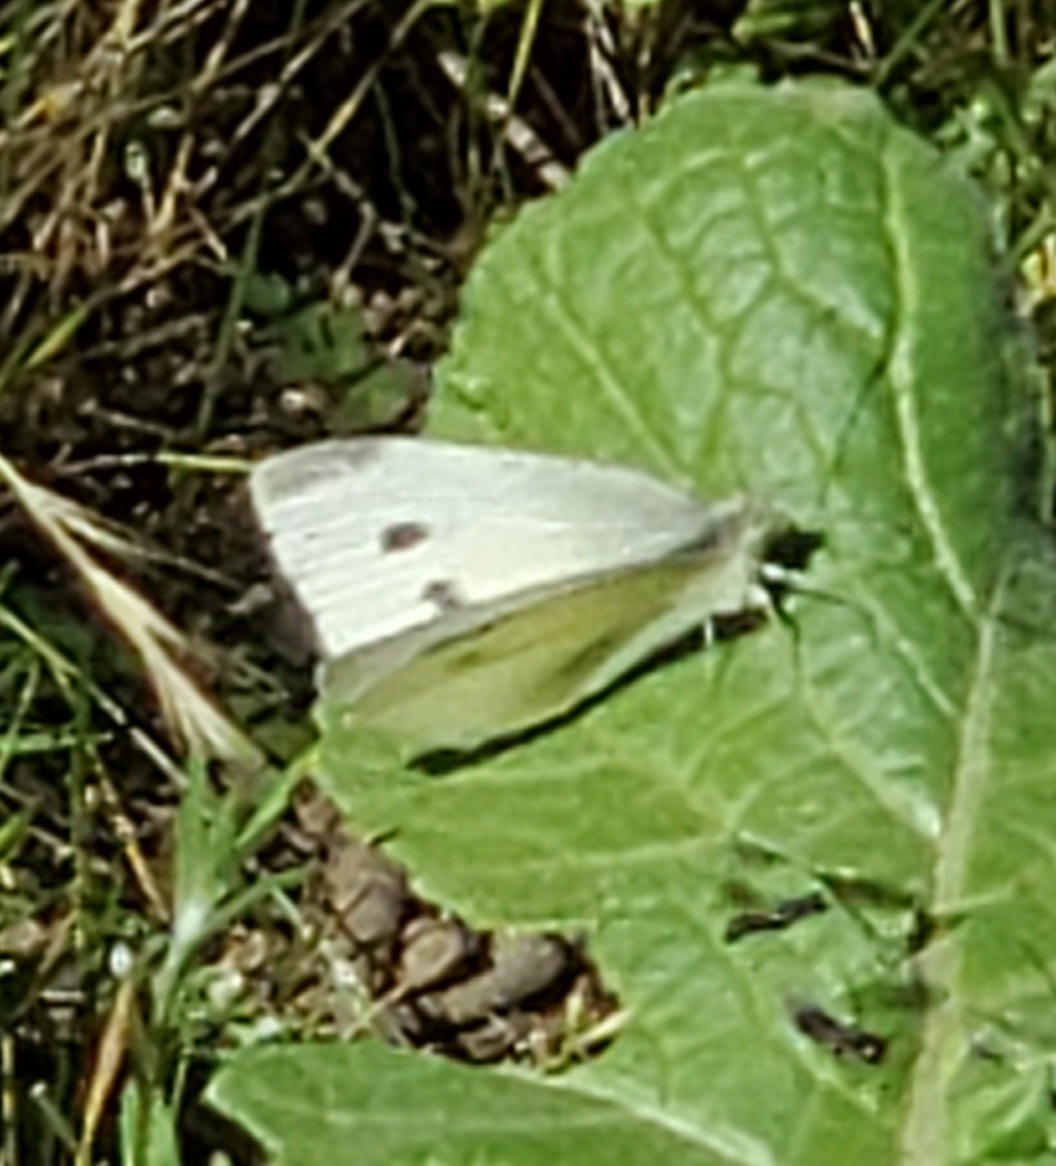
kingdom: Animalia
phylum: Arthropoda
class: Insecta
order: Lepidoptera
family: Pieridae
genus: Pieris
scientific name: Pieris rapae
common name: Small white
